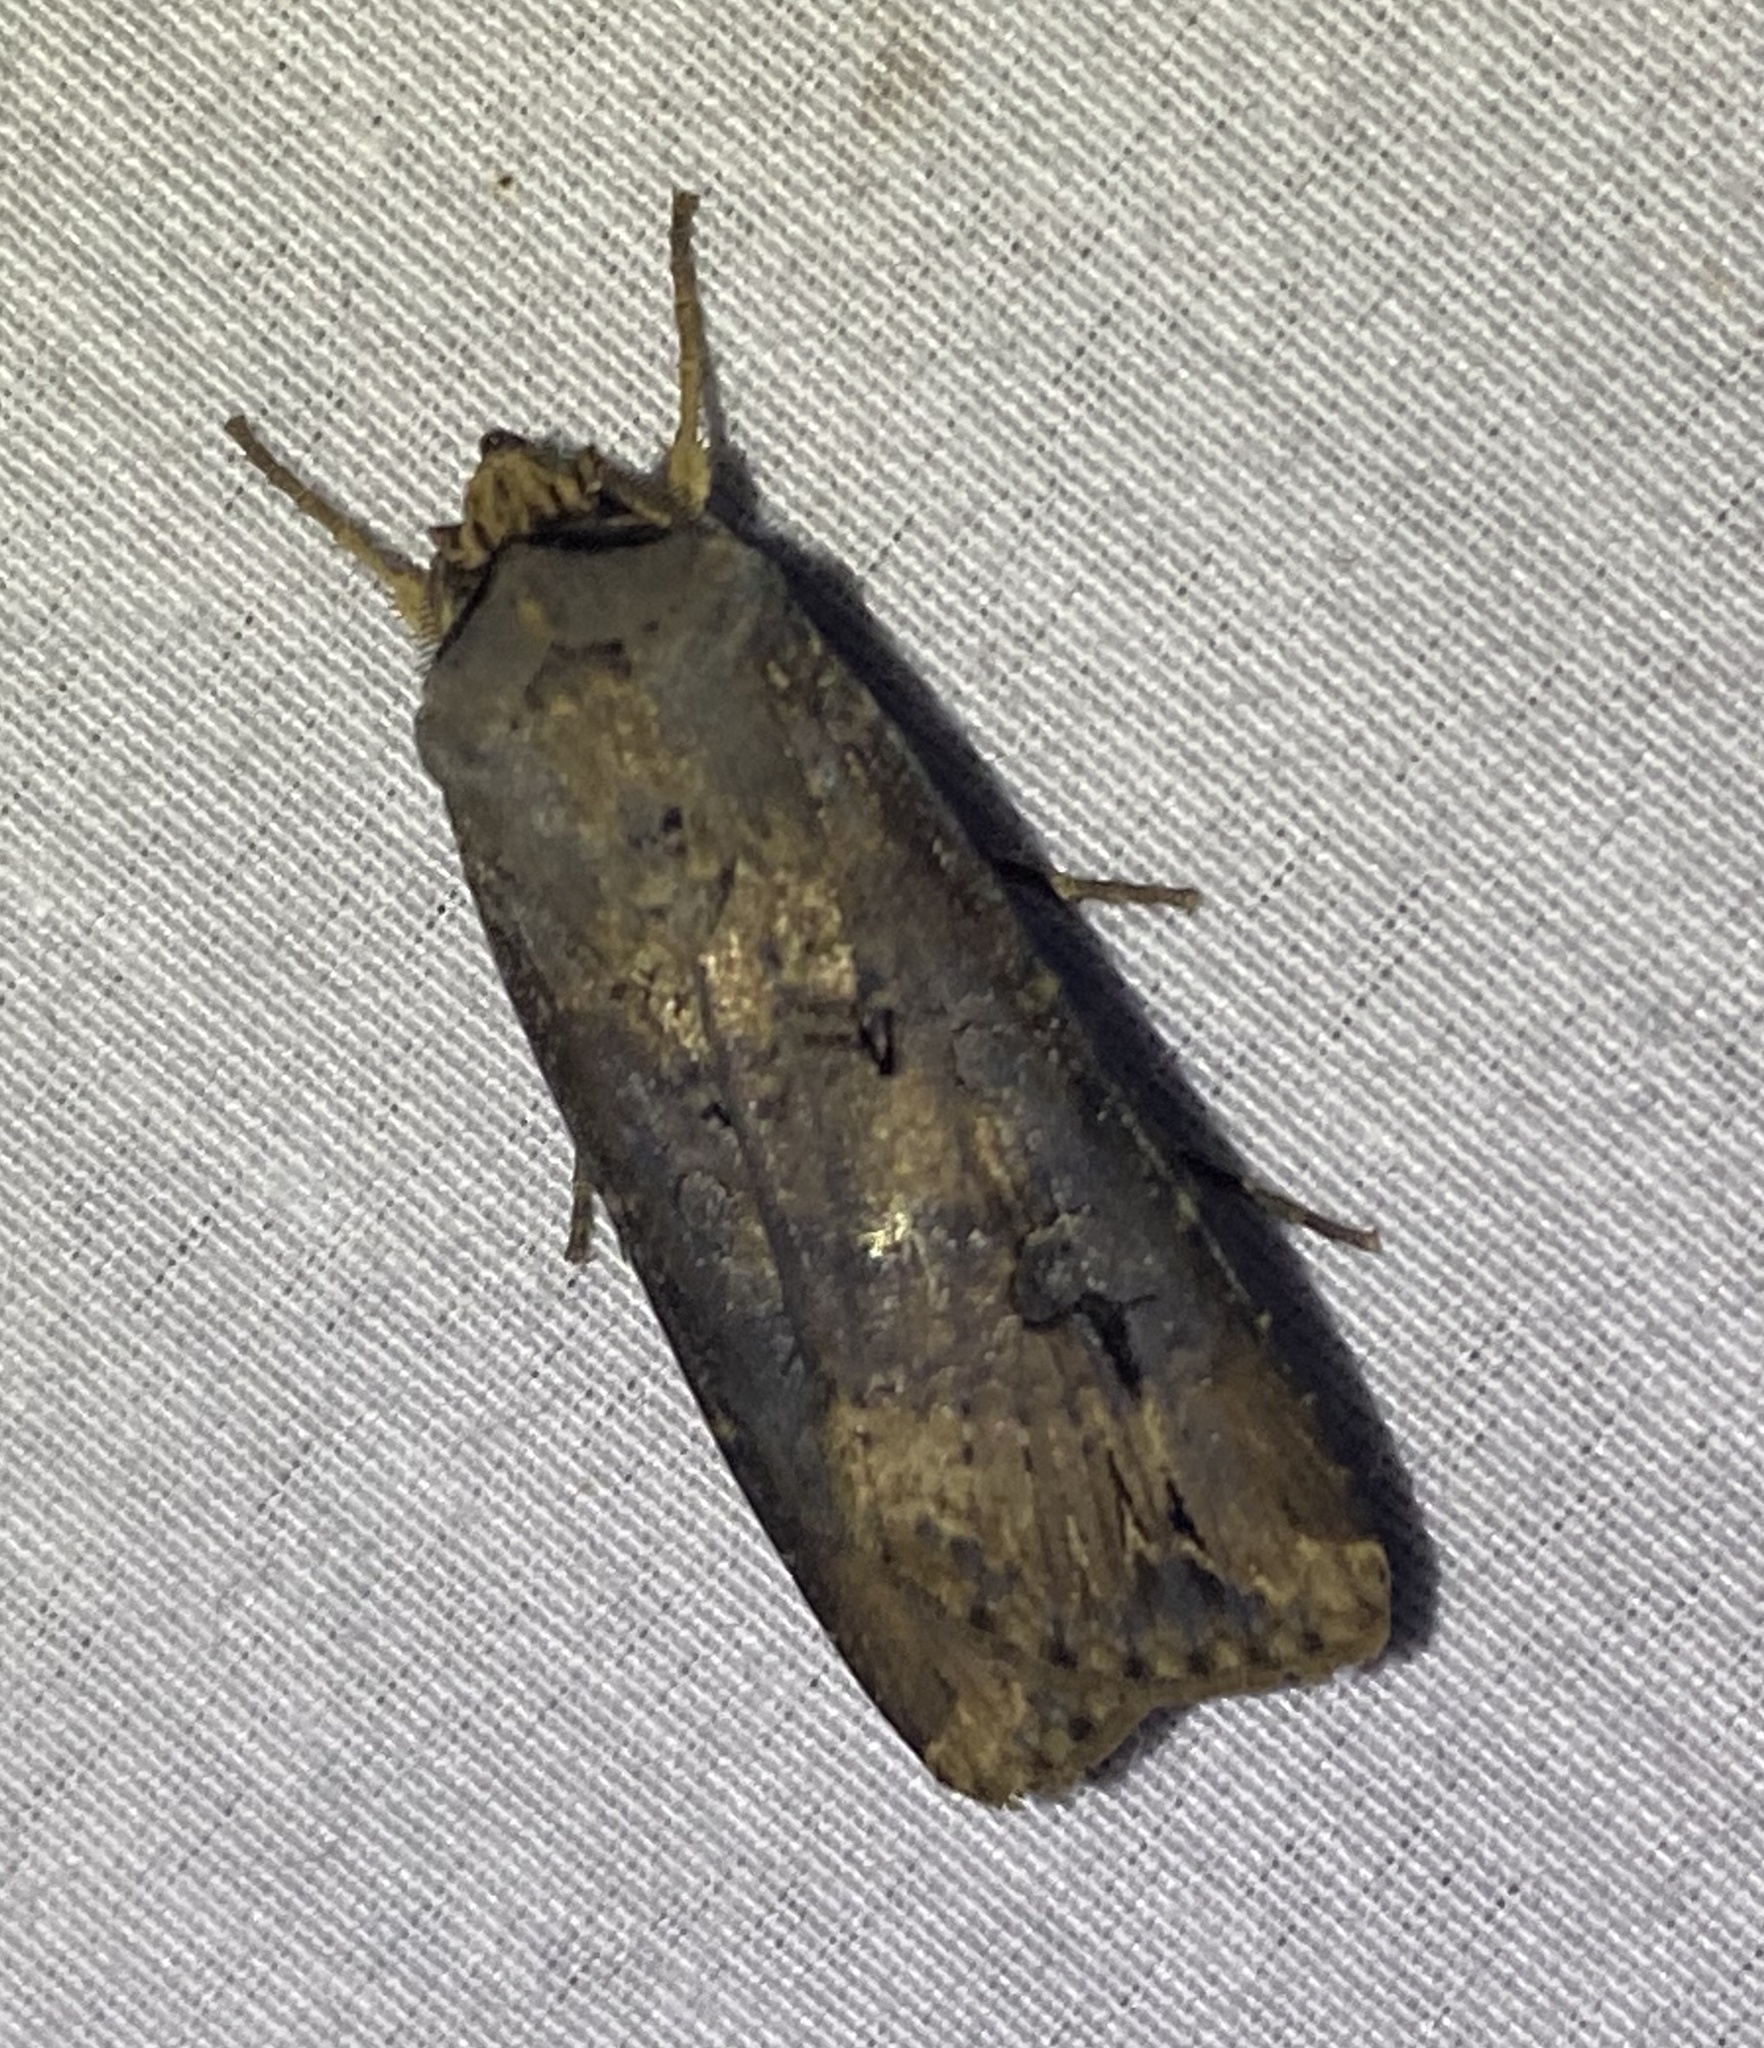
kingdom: Animalia
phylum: Arthropoda
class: Insecta
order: Lepidoptera
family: Noctuidae
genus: Agrotis
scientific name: Agrotis ipsilon
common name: Dark sword-grass
